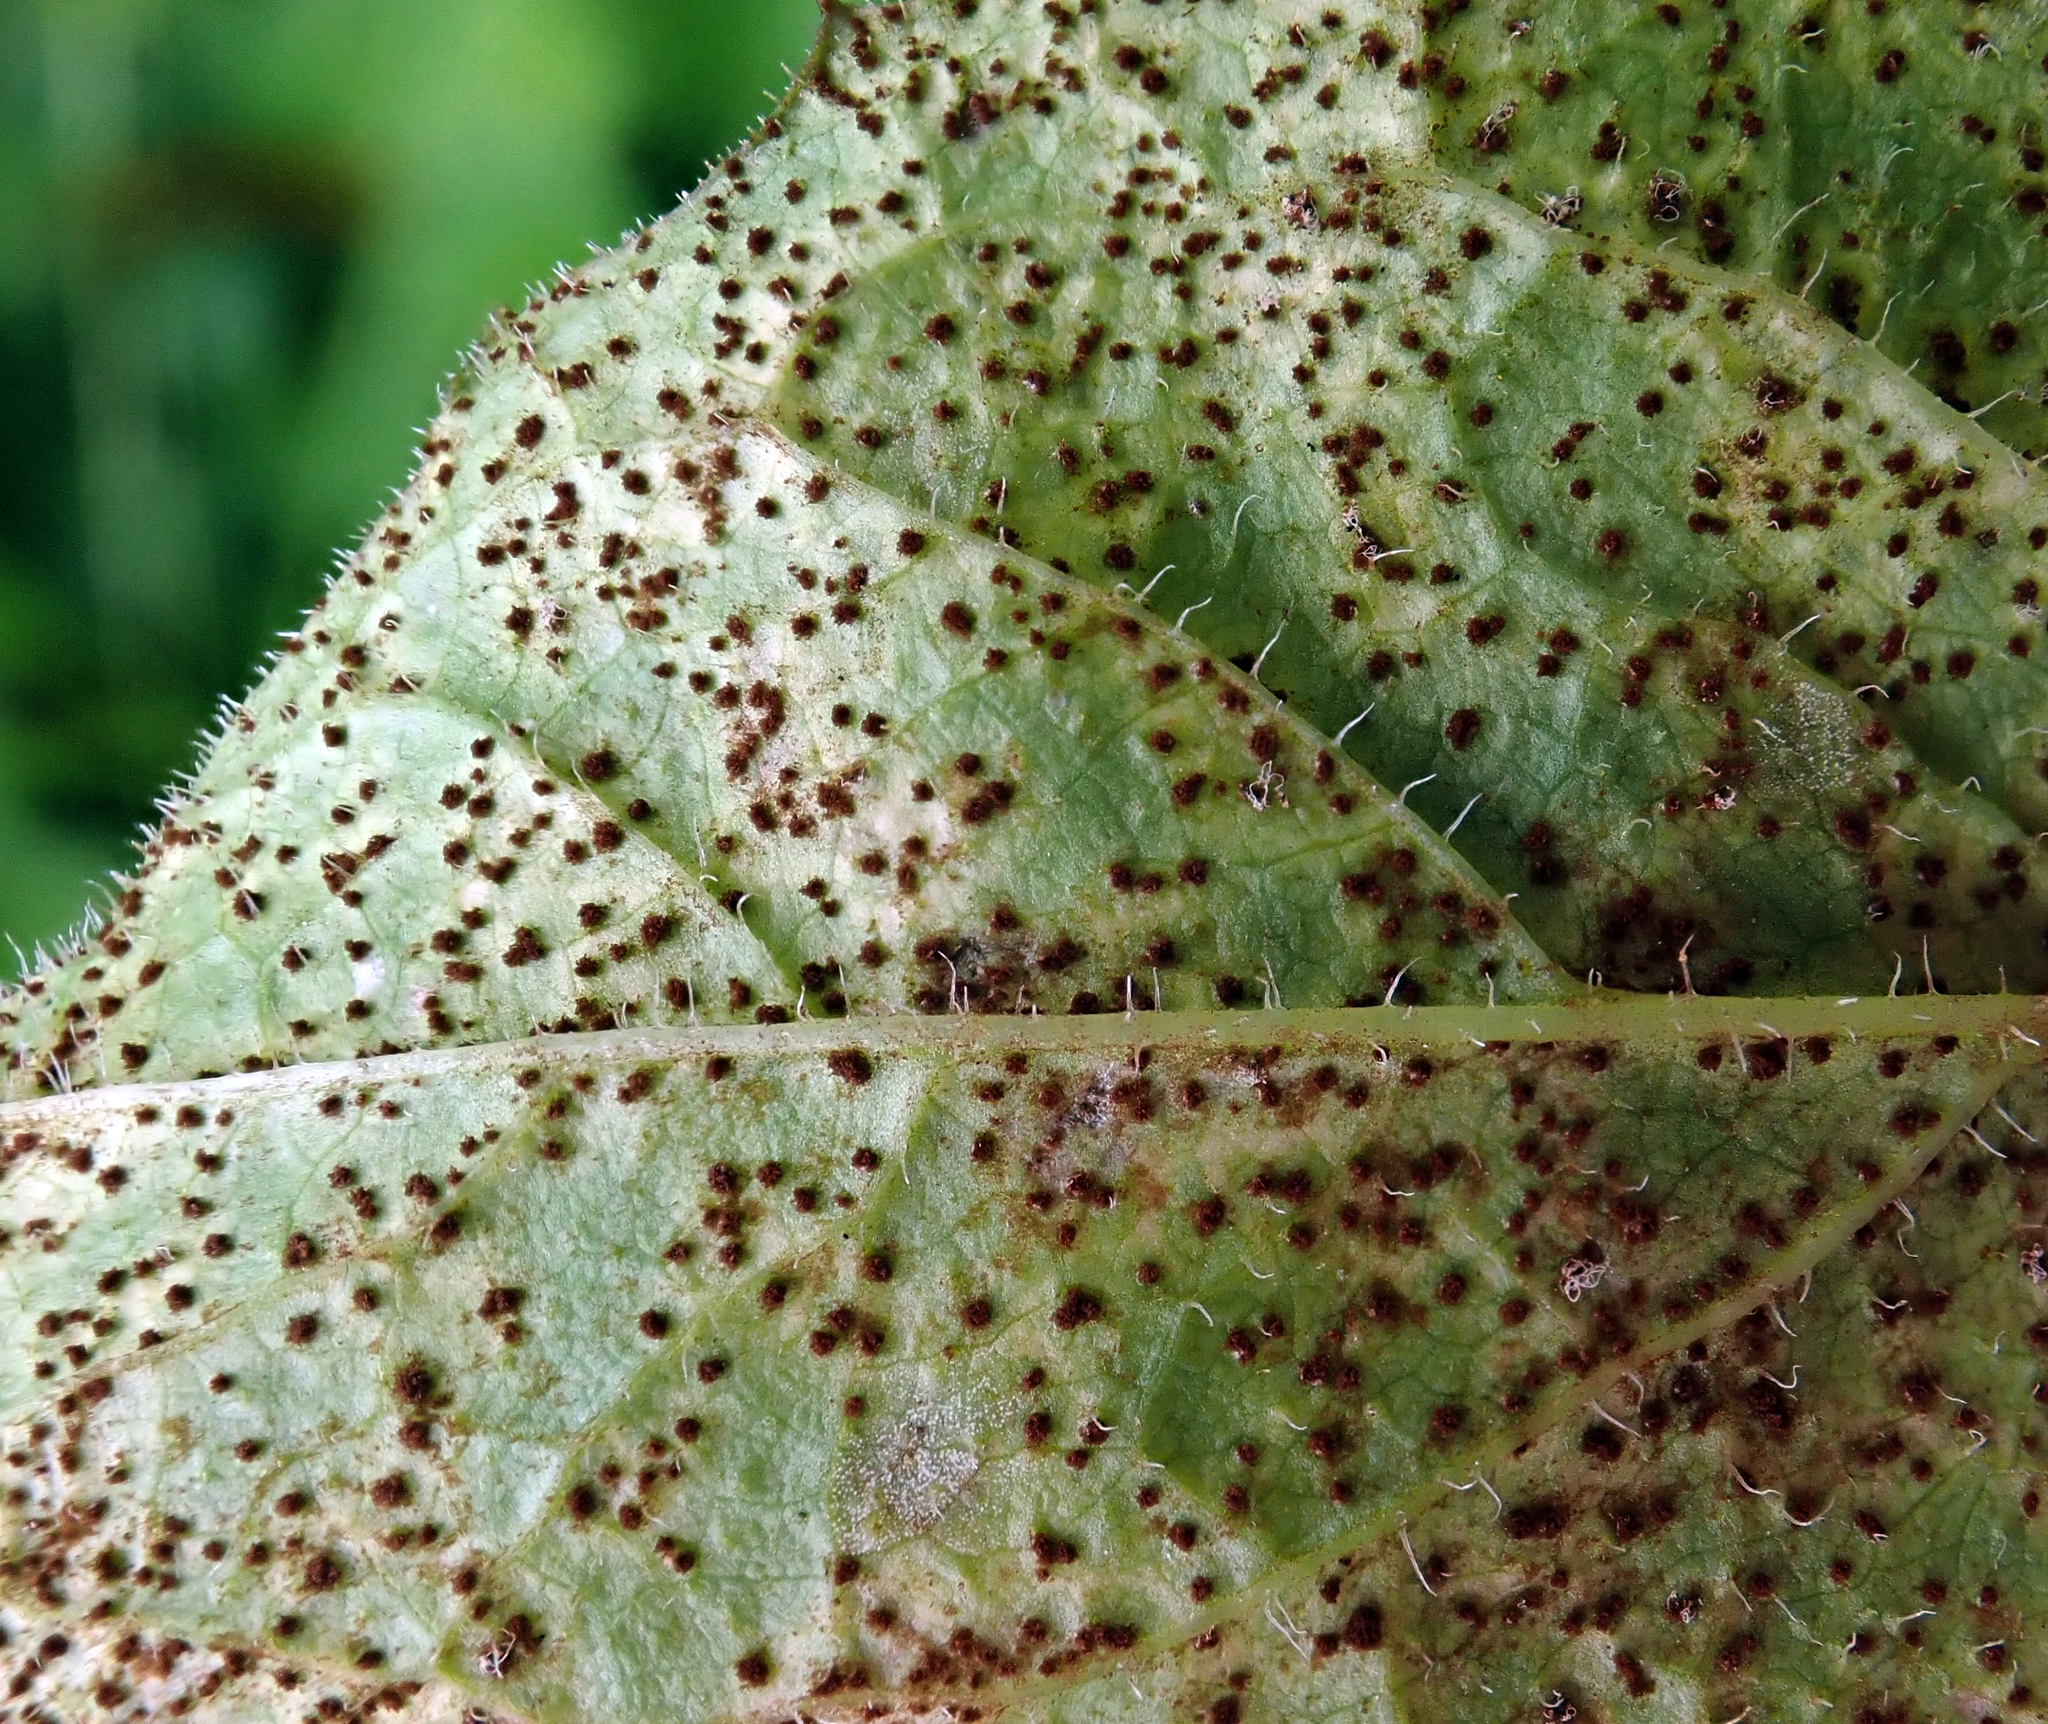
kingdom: Fungi
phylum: Basidiomycota
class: Pucciniomycetes
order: Pucciniales
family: Pucciniaceae
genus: Puccinia
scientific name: Puccinia lapsanae
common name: Nipplewort rust
